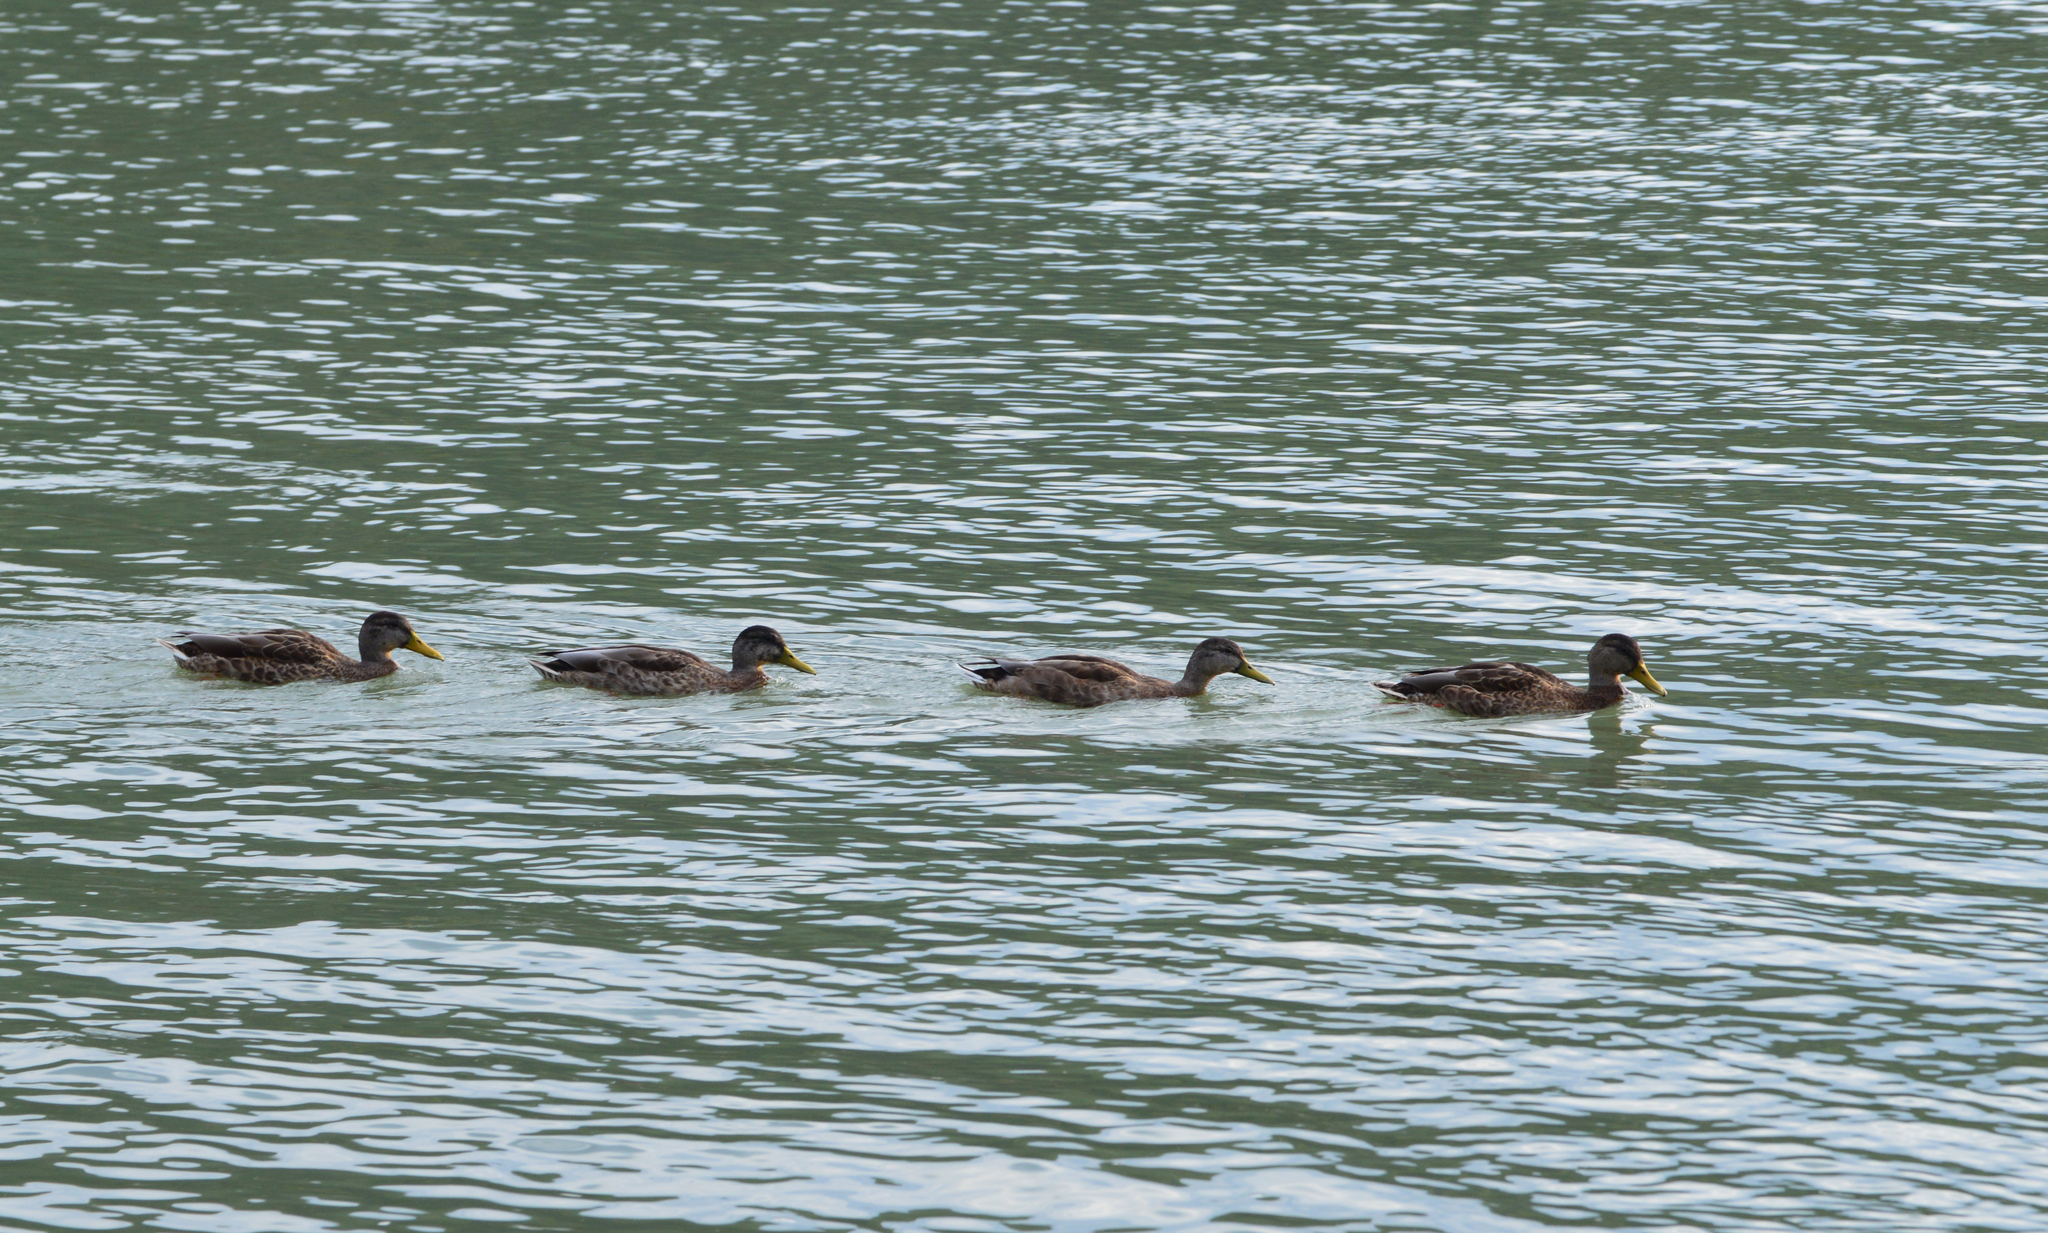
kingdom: Animalia
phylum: Chordata
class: Aves
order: Anseriformes
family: Anatidae
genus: Anas
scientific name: Anas platyrhynchos
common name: Mallard
